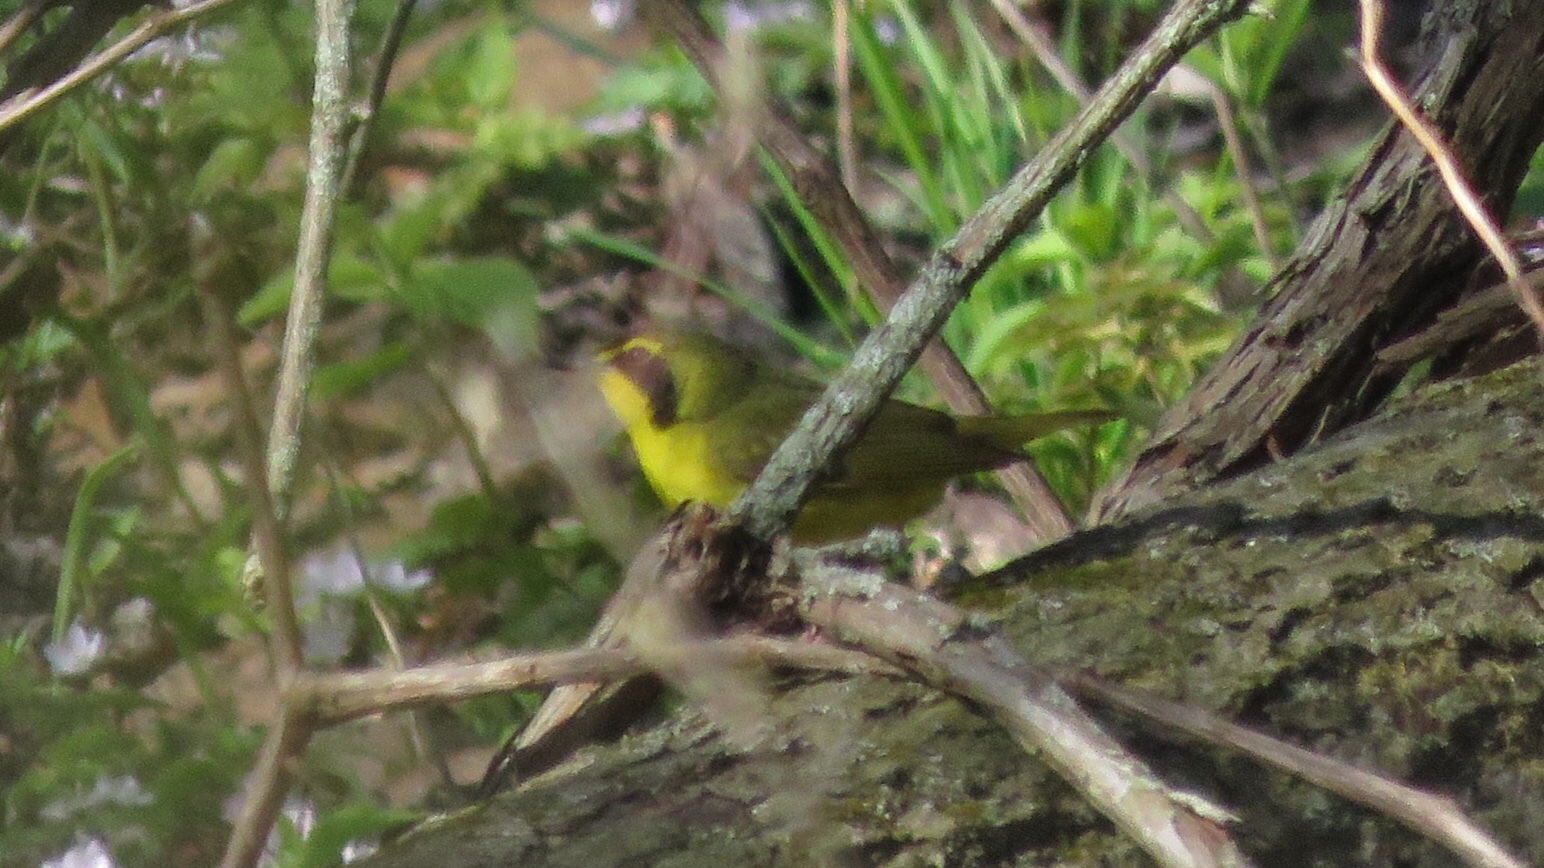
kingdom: Animalia
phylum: Chordata
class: Aves
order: Passeriformes
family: Parulidae
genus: Geothlypis
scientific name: Geothlypis formosa
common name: Kentucky warbler
